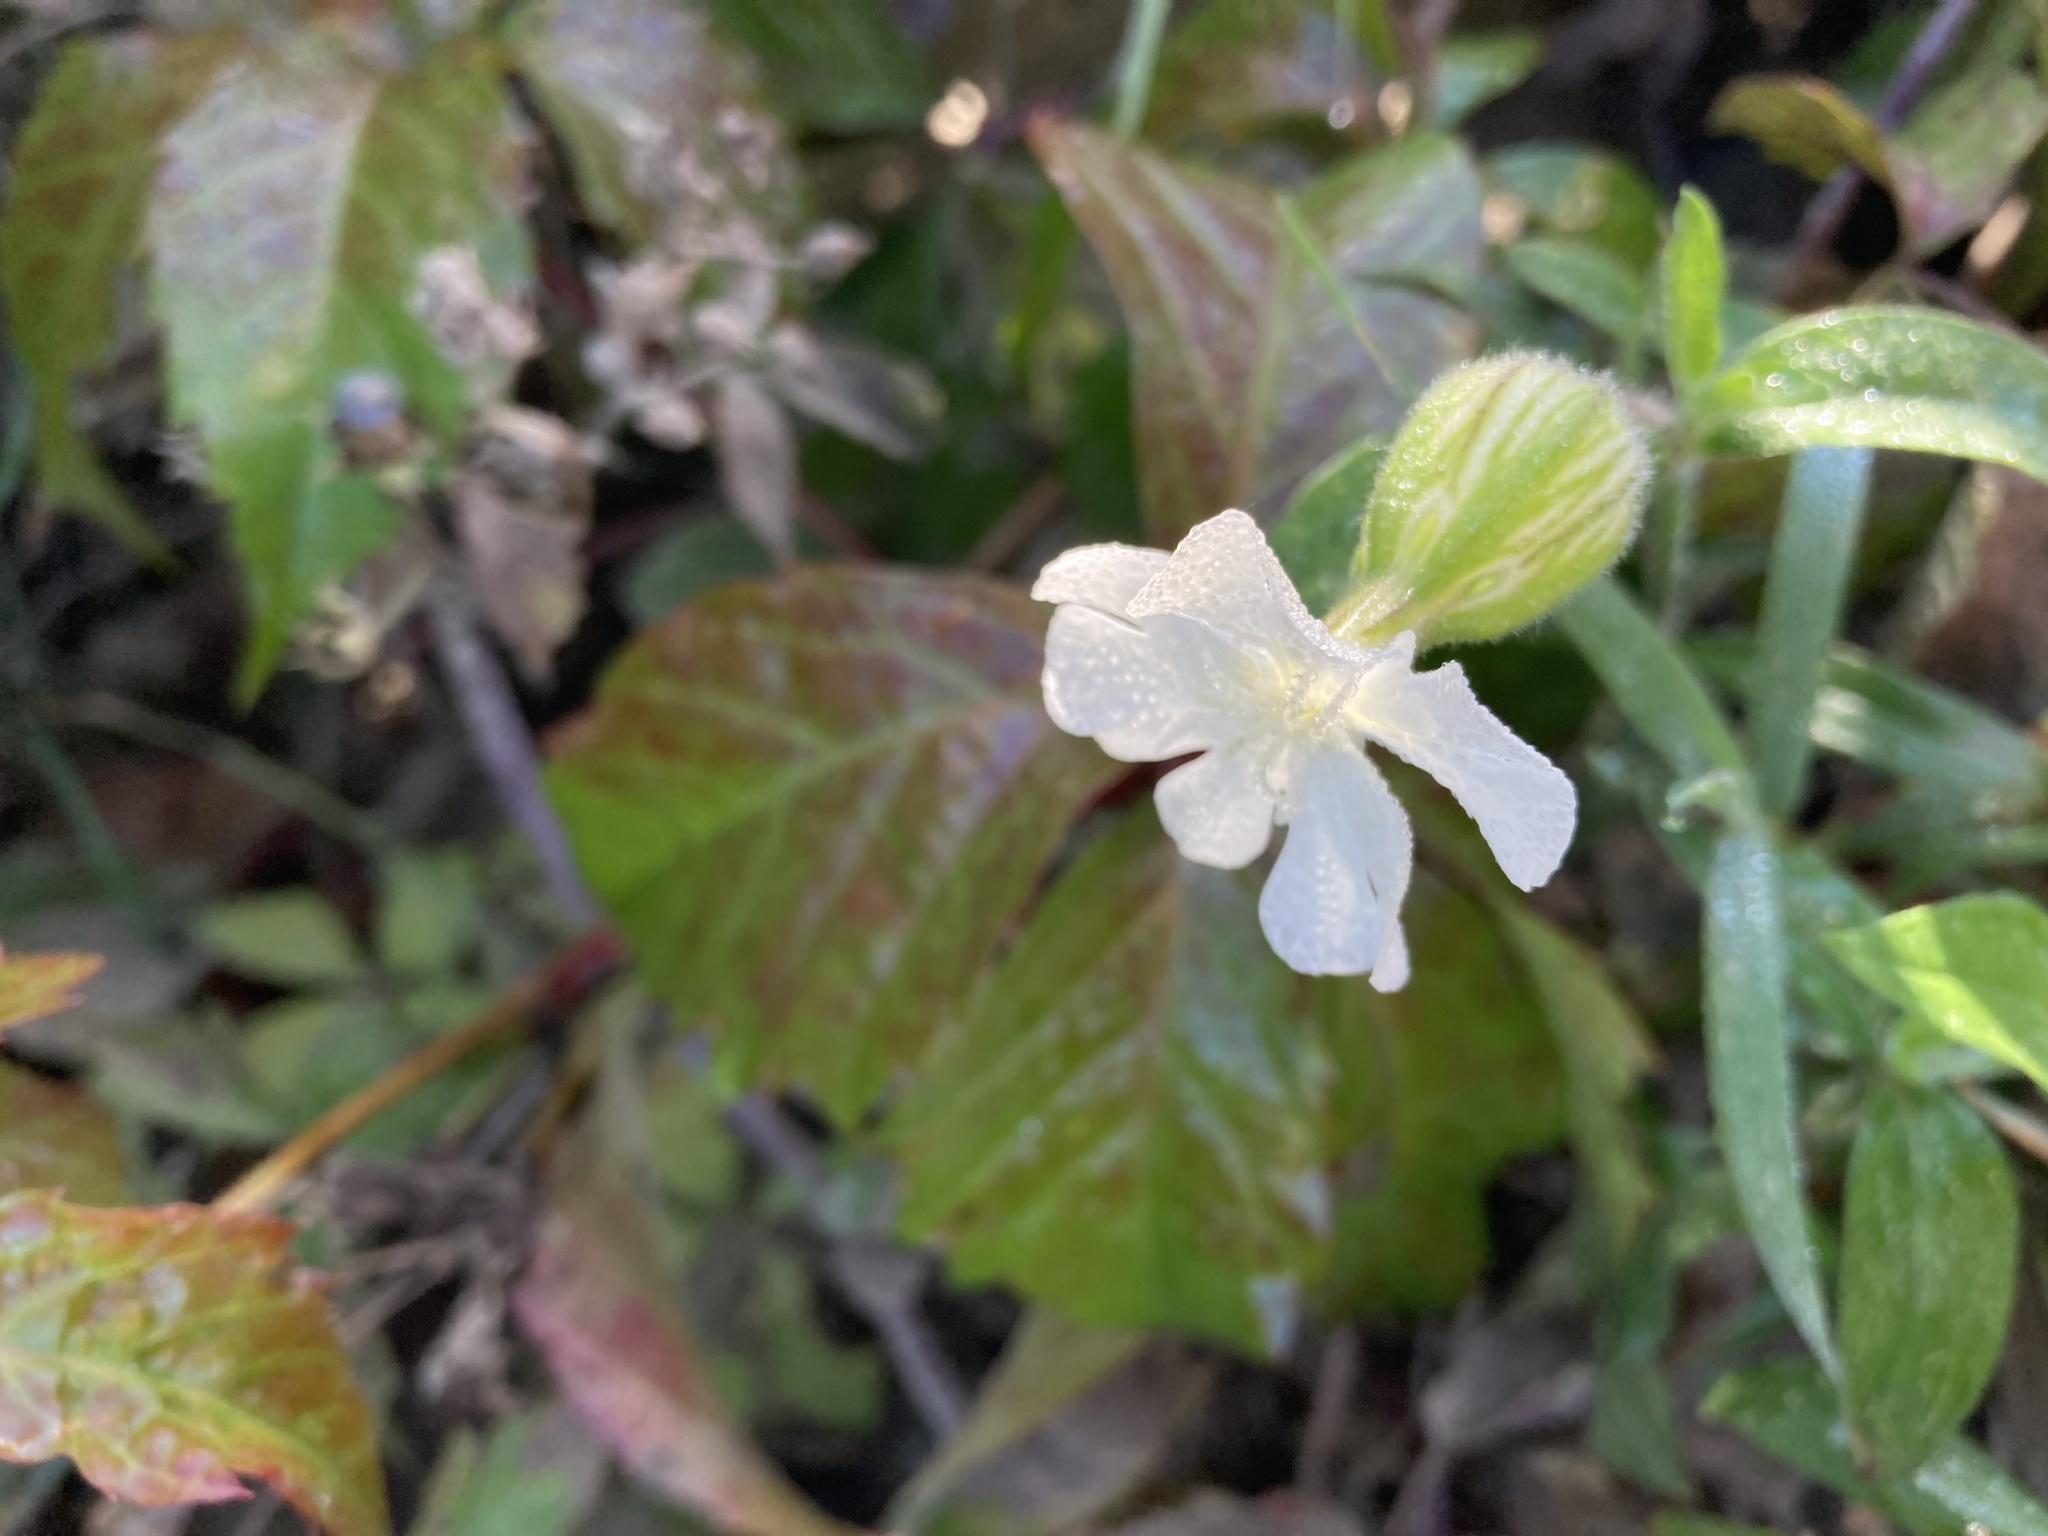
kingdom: Plantae
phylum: Tracheophyta
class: Magnoliopsida
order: Caryophyllales
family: Caryophyllaceae
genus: Silene
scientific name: Silene latifolia
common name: White campion
